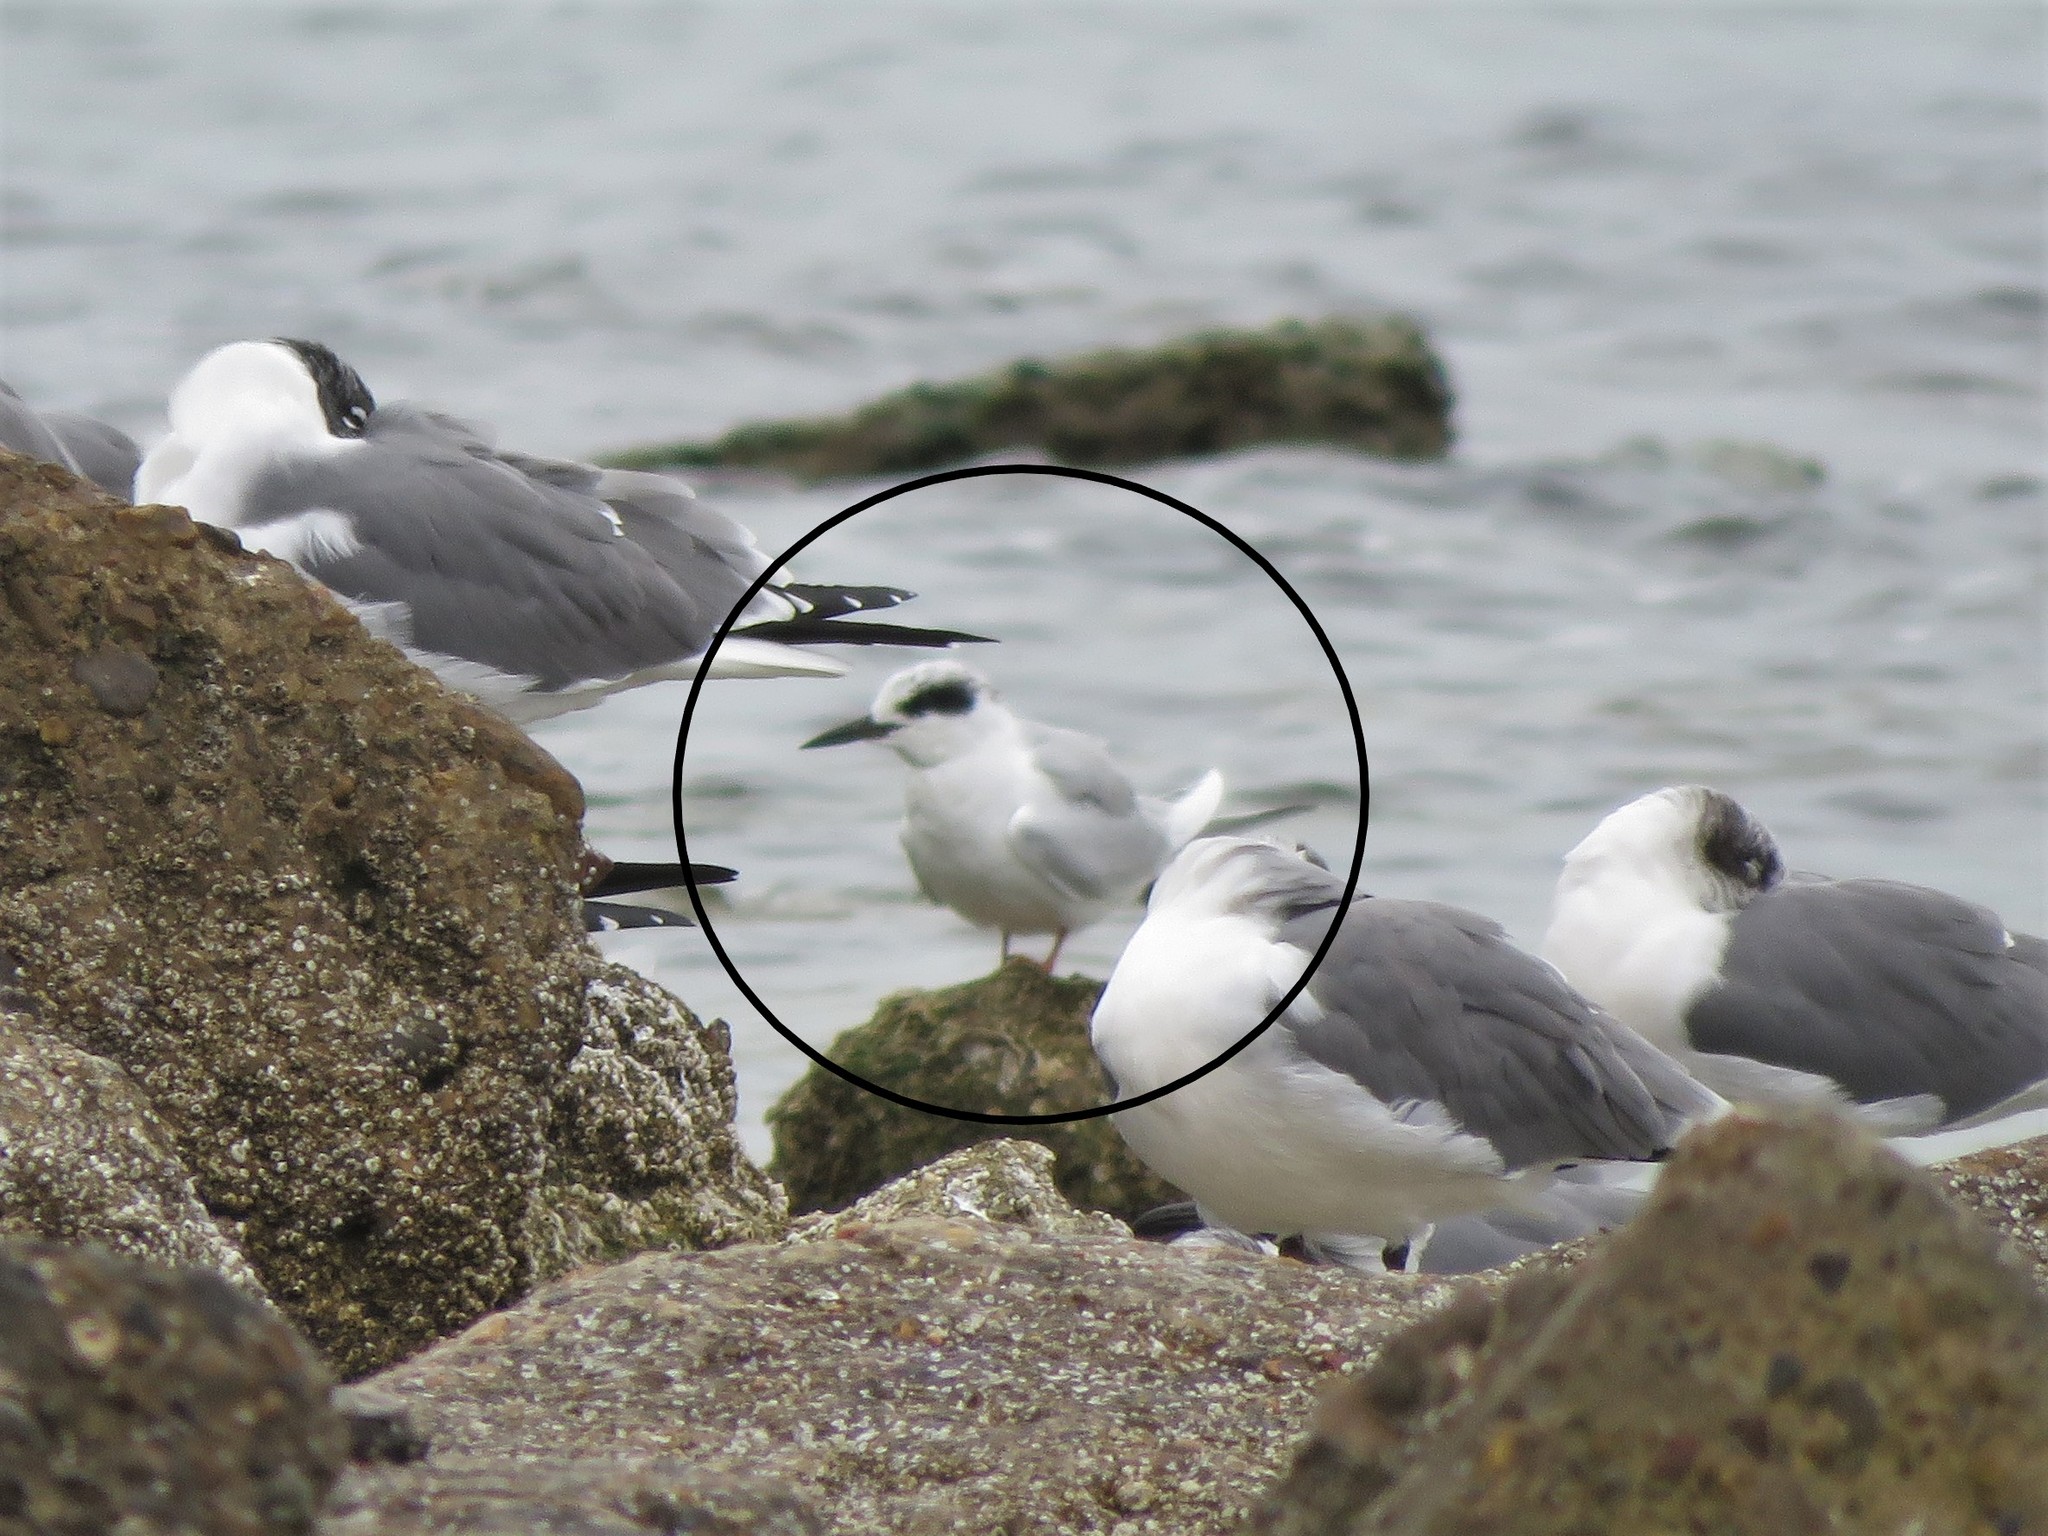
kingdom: Animalia
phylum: Chordata
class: Aves
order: Charadriiformes
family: Laridae
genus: Sterna
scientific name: Sterna forsteri
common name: Forster's tern
